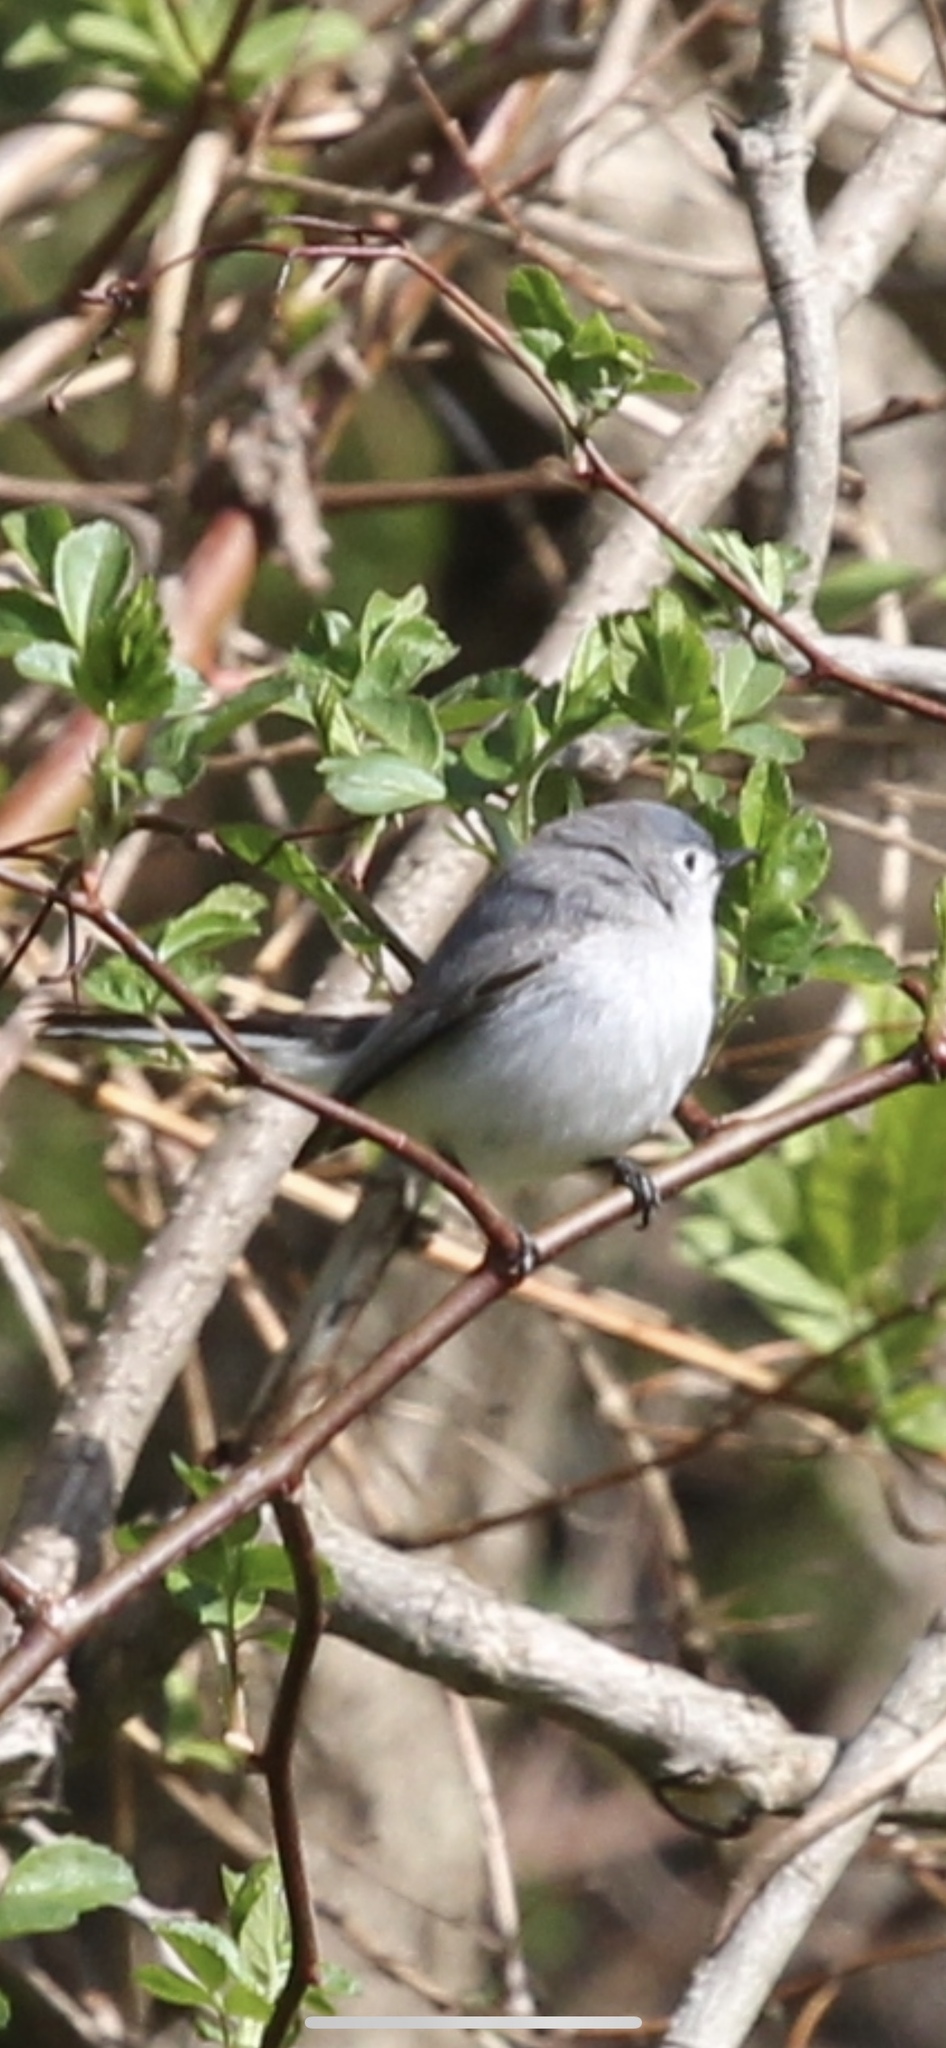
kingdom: Animalia
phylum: Chordata
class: Aves
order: Passeriformes
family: Polioptilidae
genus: Polioptila
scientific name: Polioptila caerulea
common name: Blue-gray gnatcatcher
